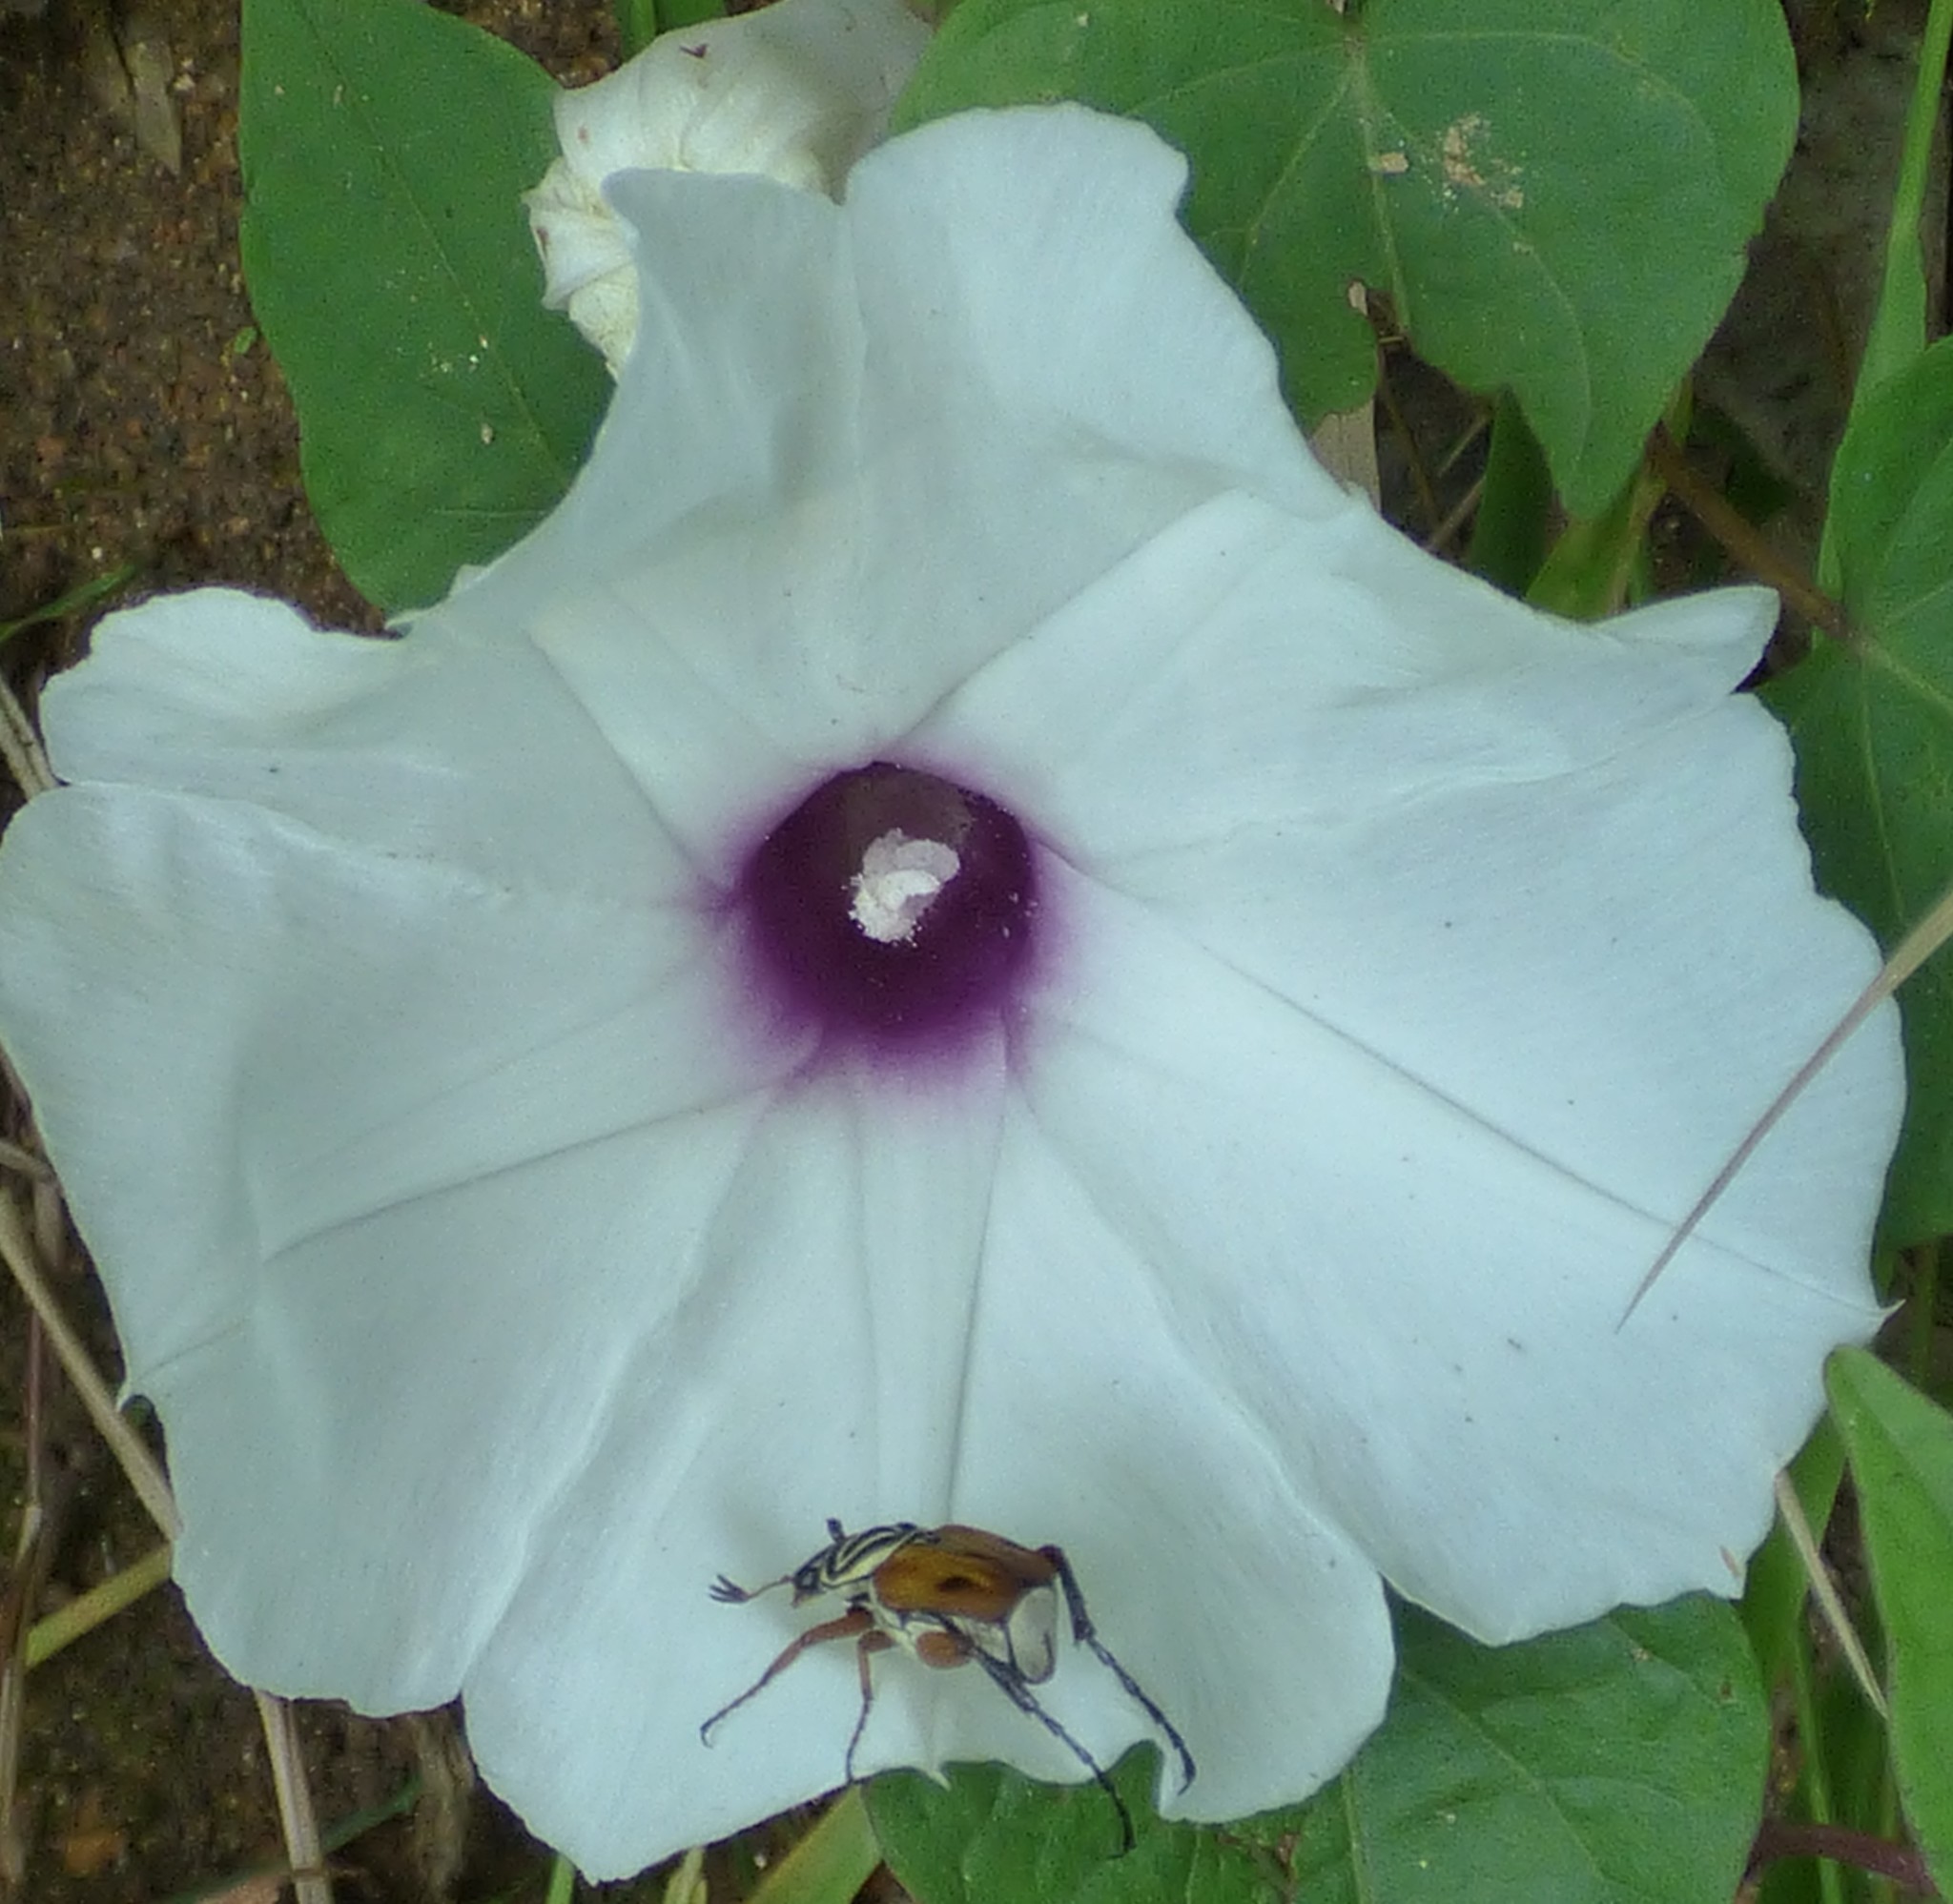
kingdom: Plantae
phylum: Tracheophyta
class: Magnoliopsida
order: Solanales
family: Convolvulaceae
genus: Ipomoea
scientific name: Ipomoea pandurata
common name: Man-of-the-earth
